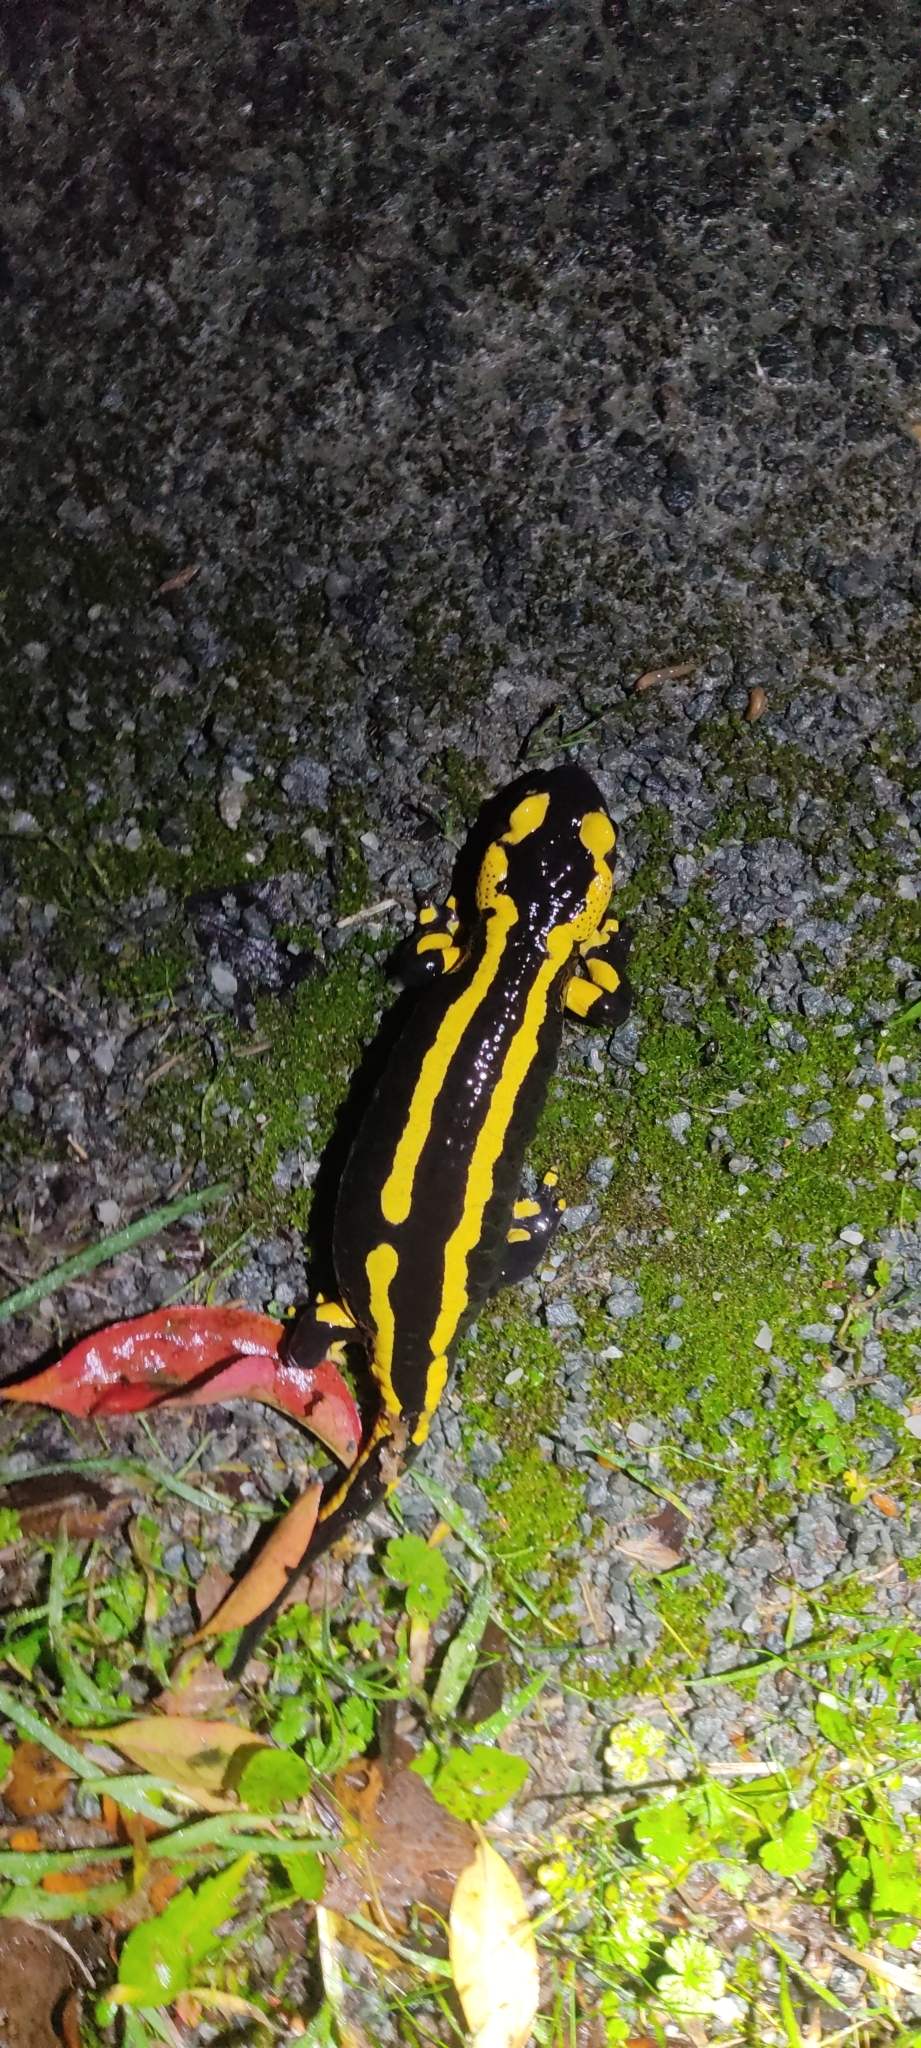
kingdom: Animalia
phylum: Chordata
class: Amphibia
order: Caudata
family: Salamandridae
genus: Salamandra
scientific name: Salamandra salamandra
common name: Fire salamander
